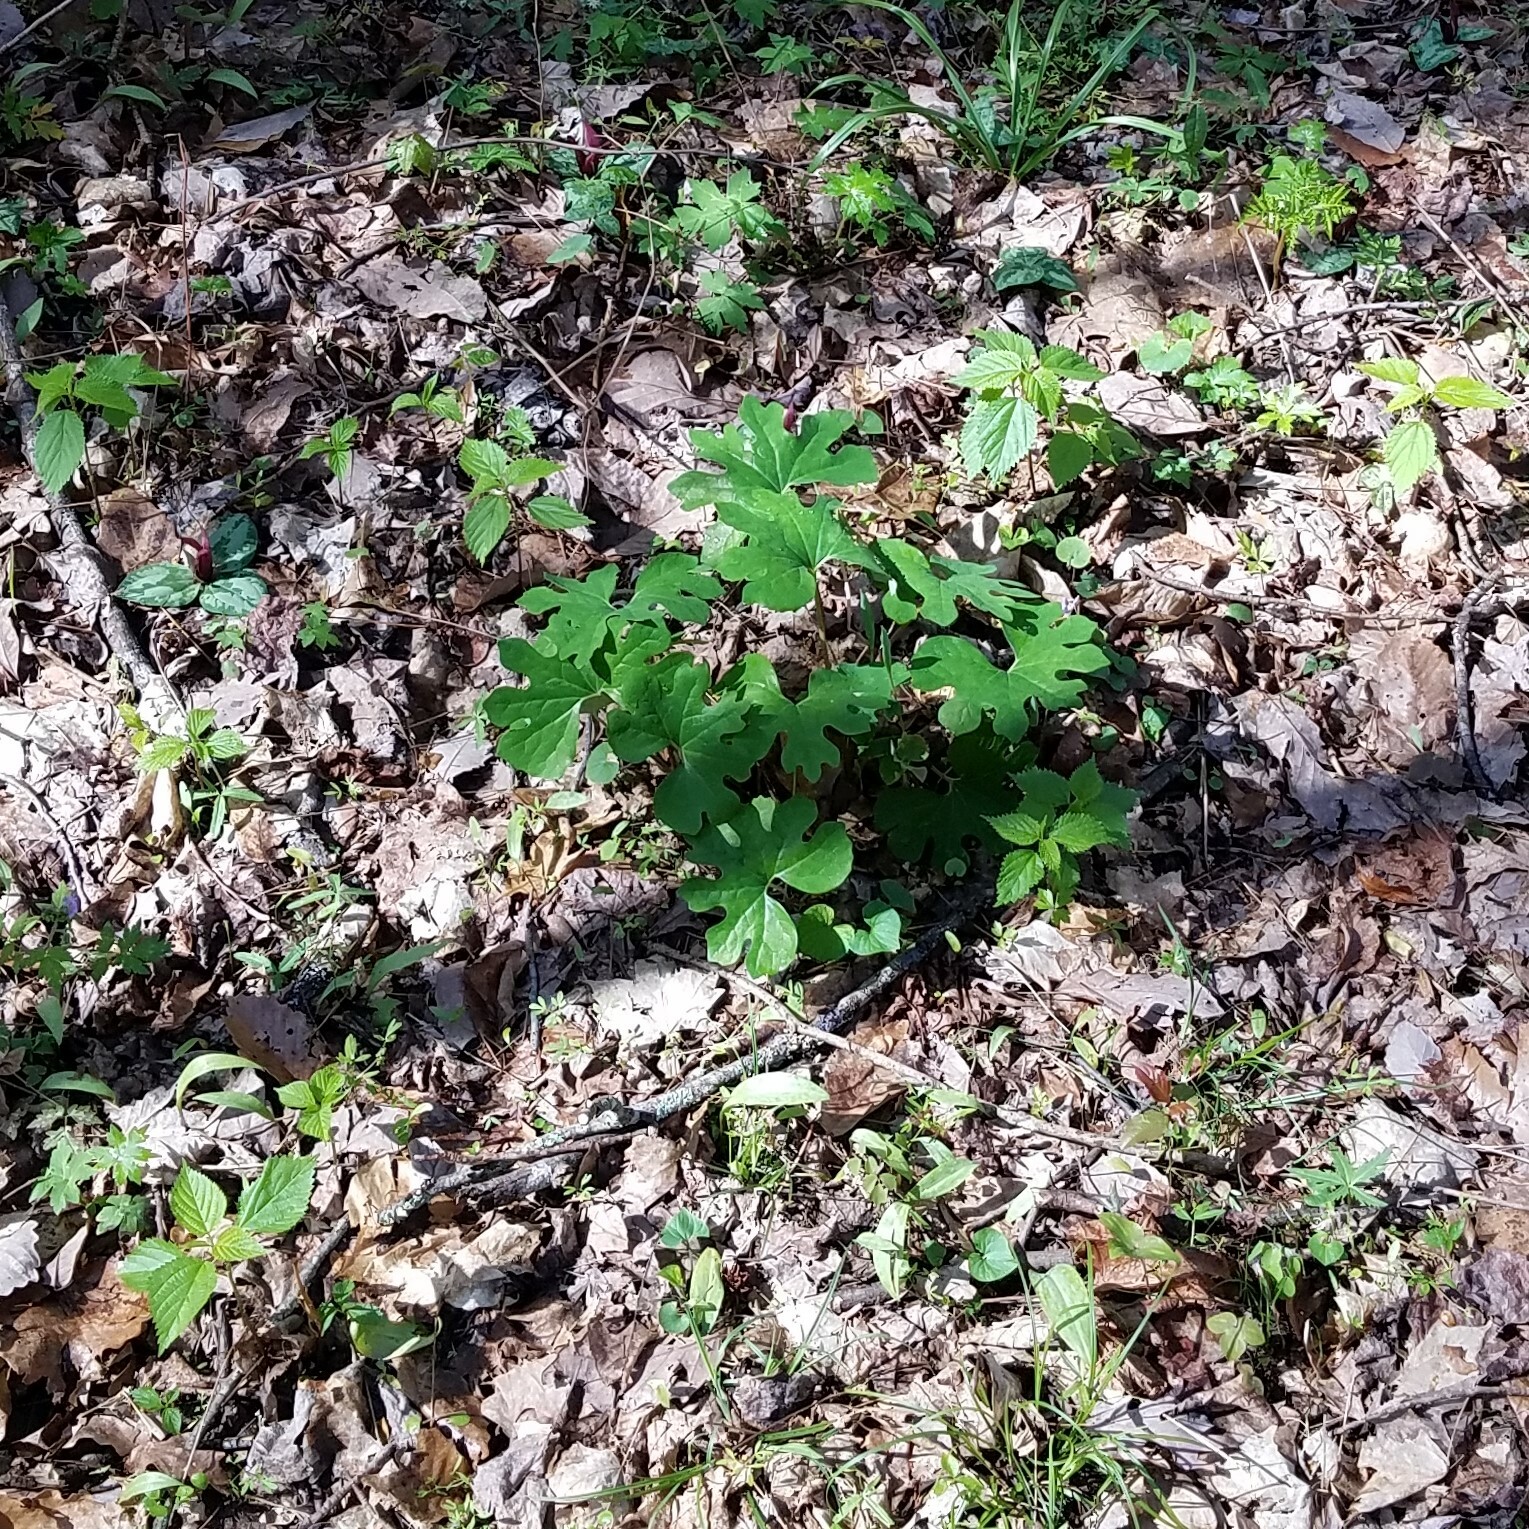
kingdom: Plantae
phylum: Tracheophyta
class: Magnoliopsida
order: Ranunculales
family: Papaveraceae
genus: Sanguinaria
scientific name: Sanguinaria canadensis
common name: Bloodroot
